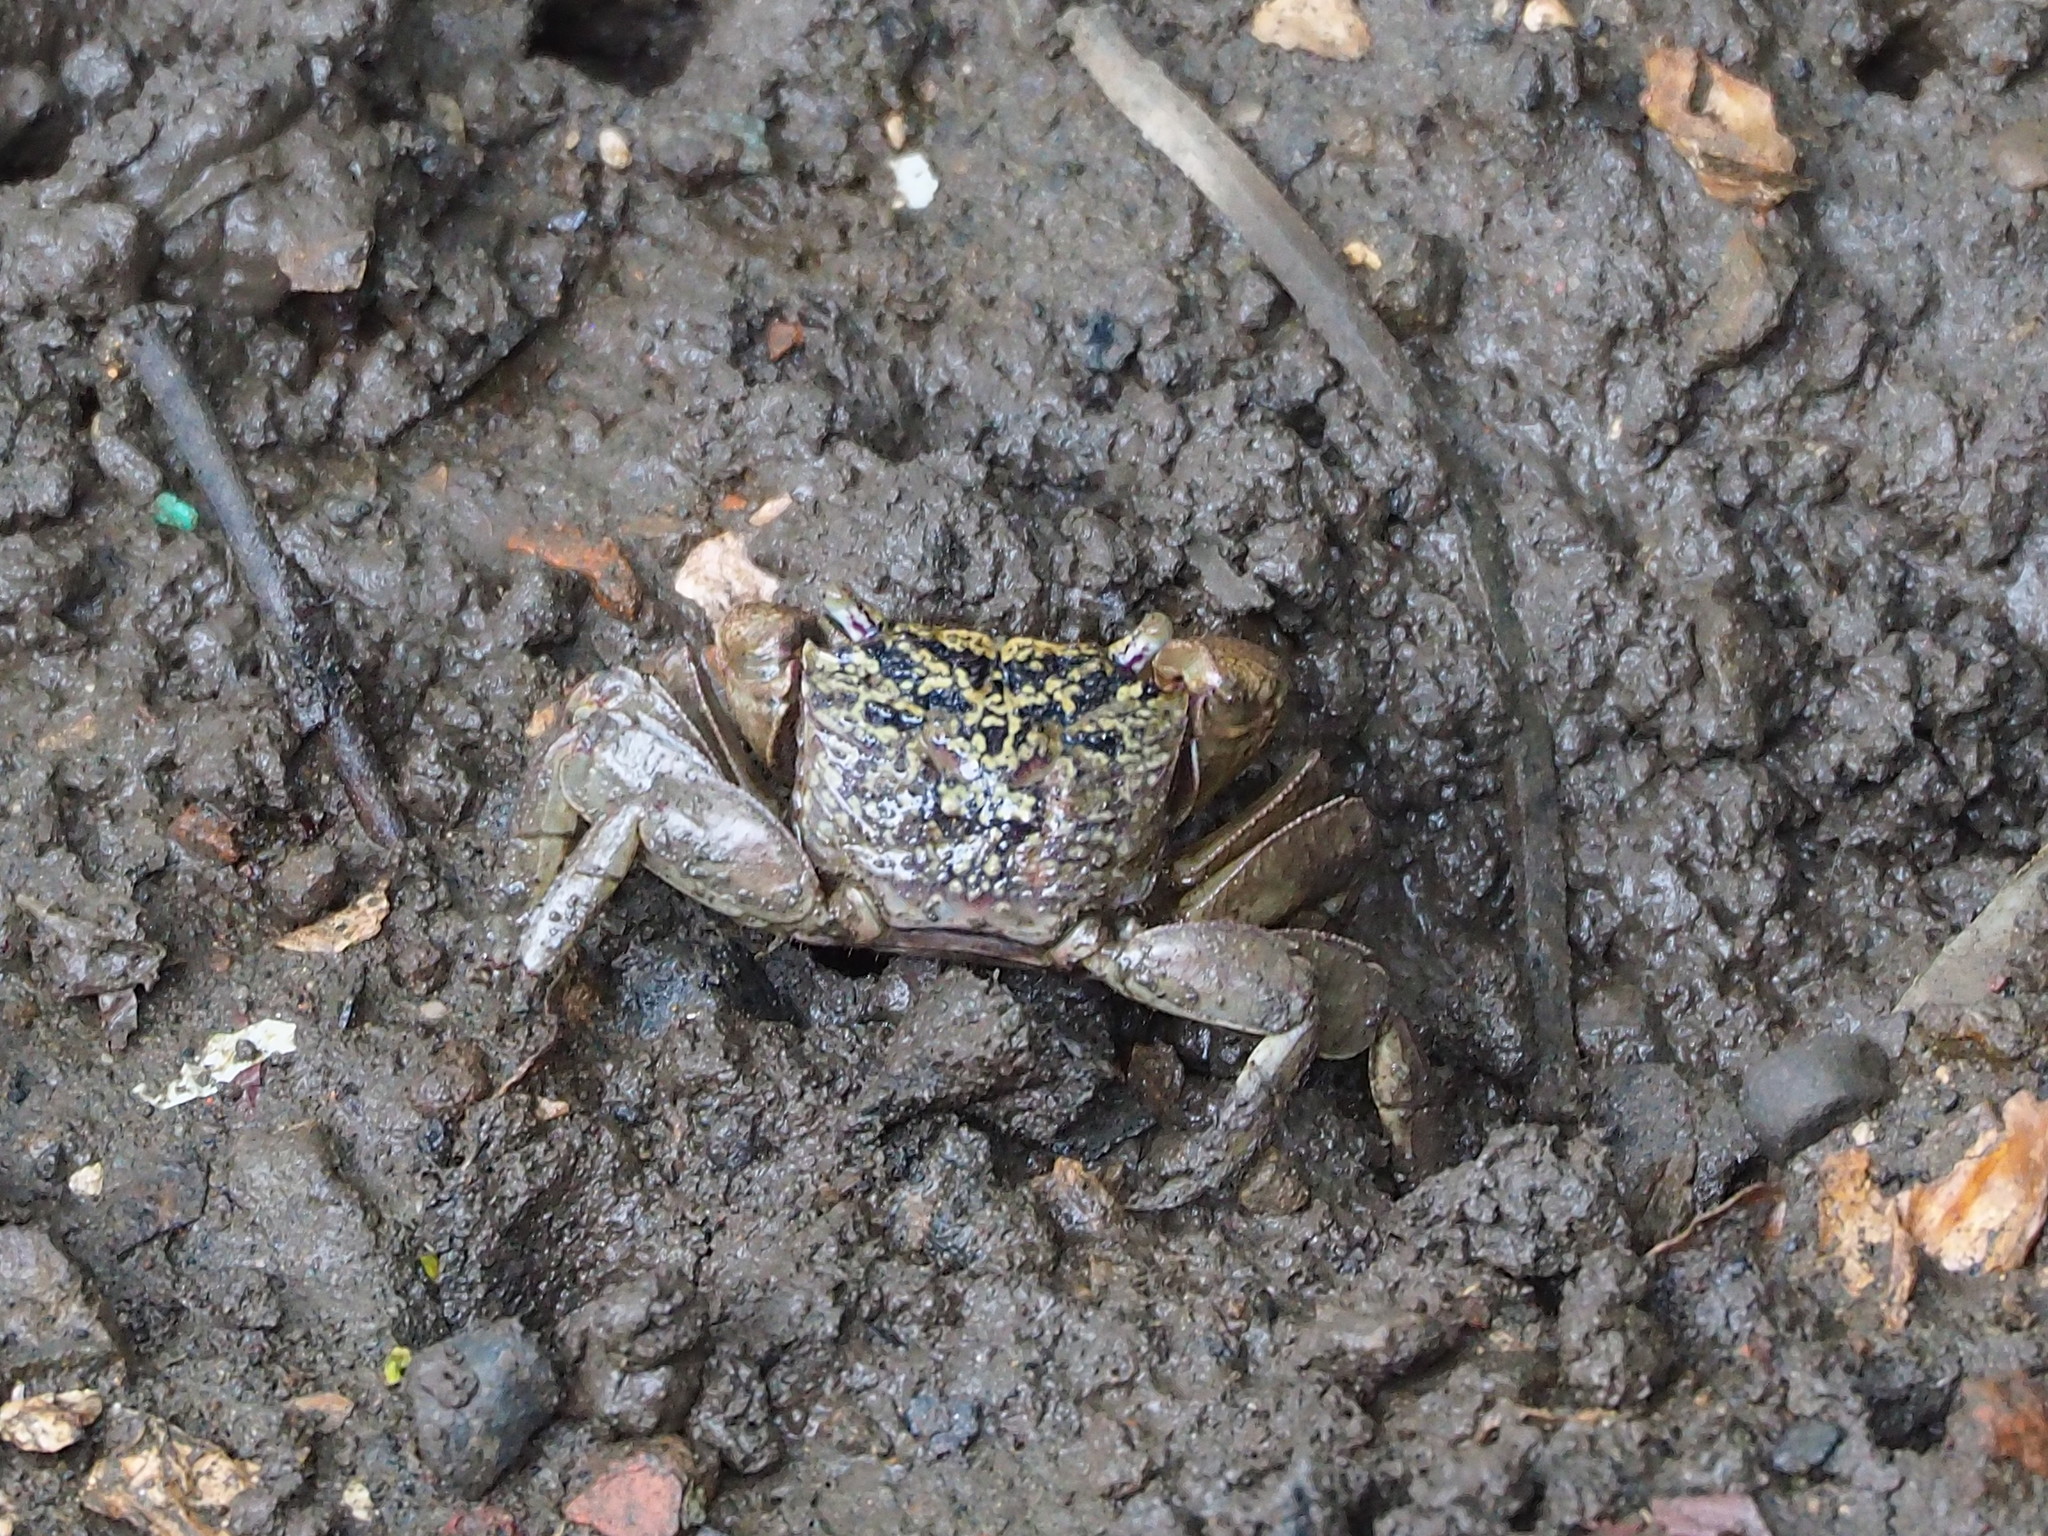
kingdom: Animalia
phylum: Arthropoda
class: Malacostraca
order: Decapoda
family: Sesarmidae
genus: Parasesarma
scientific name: Parasesarma affine
